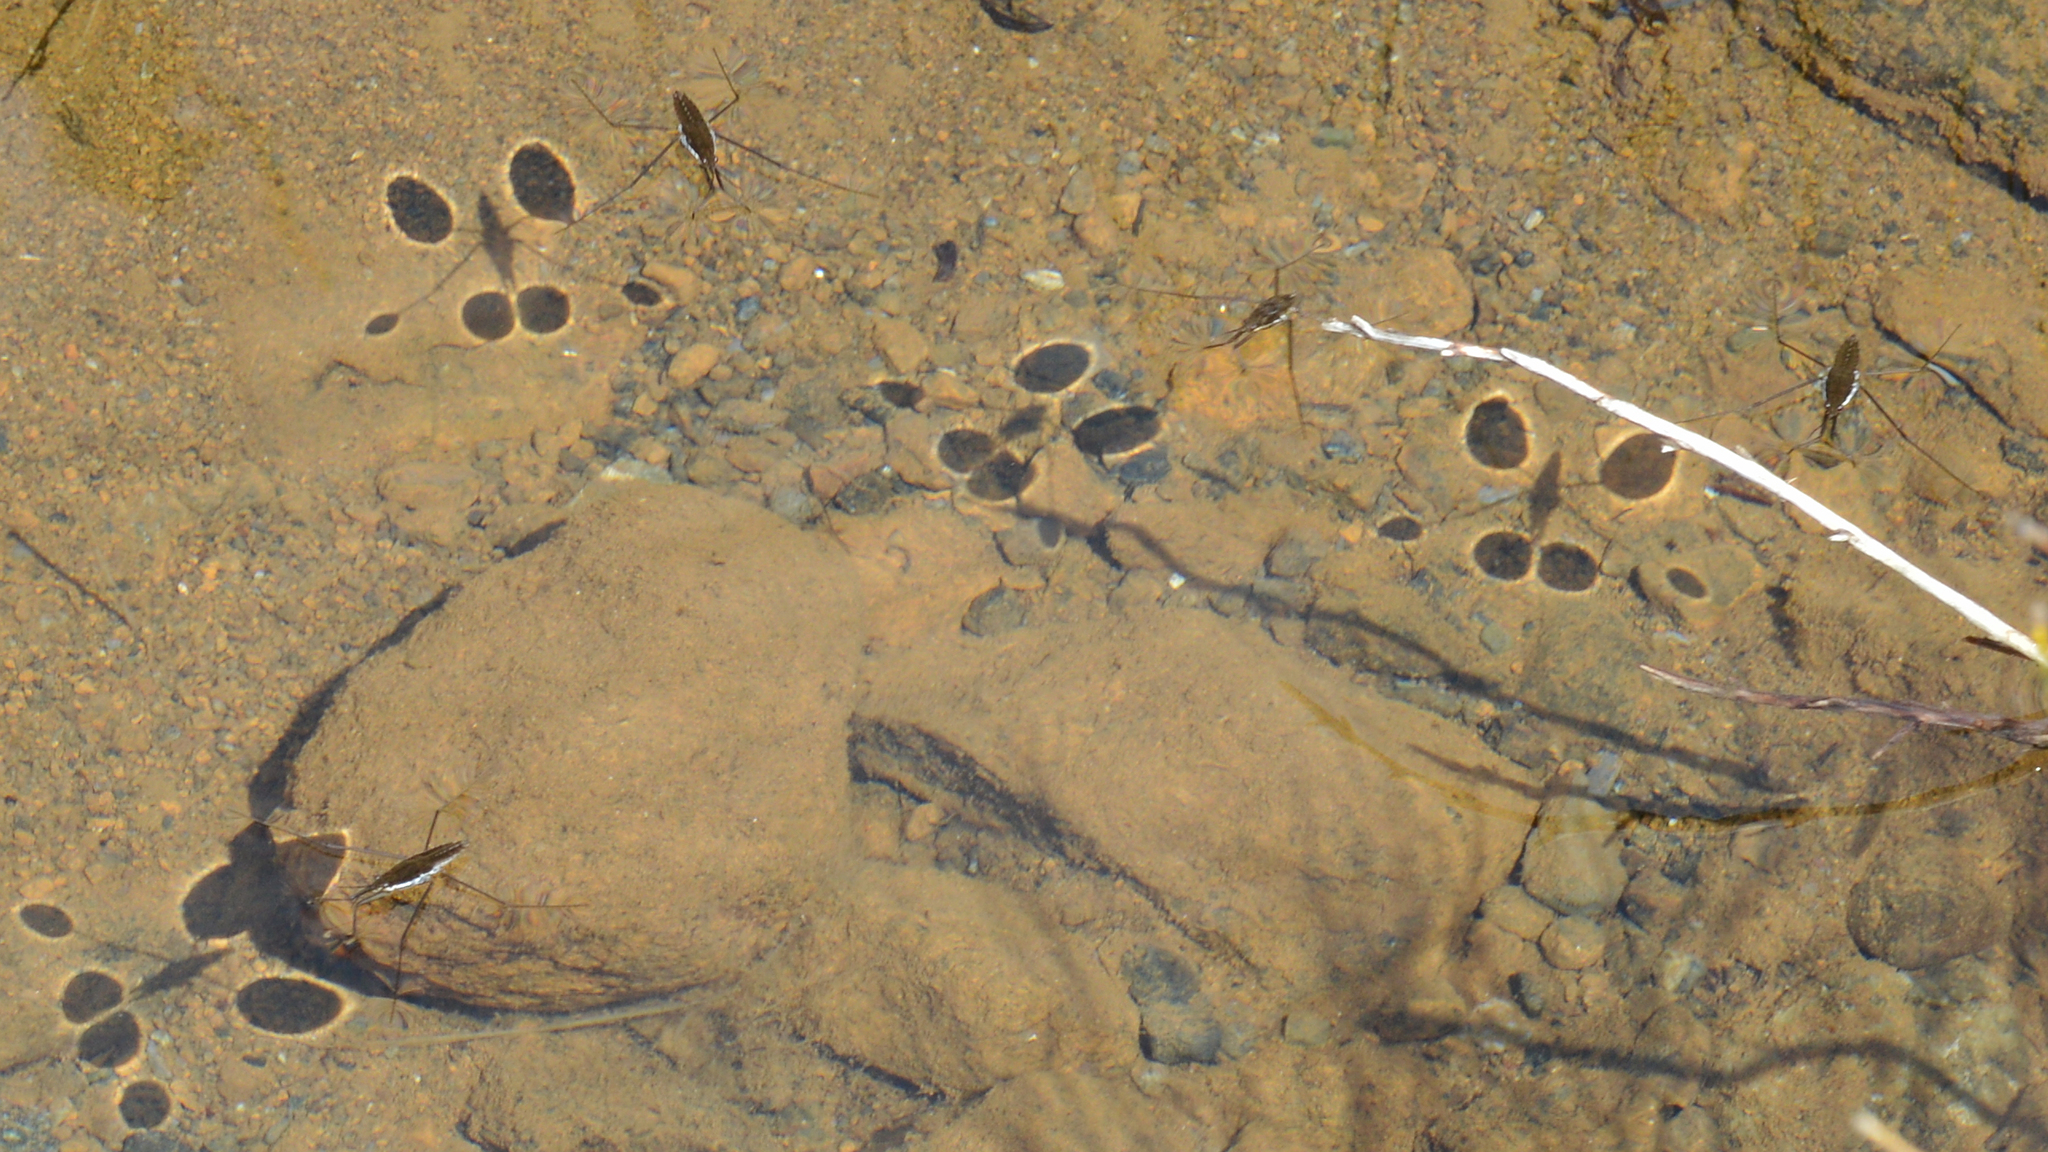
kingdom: Animalia
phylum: Arthropoda
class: Insecta
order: Hemiptera
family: Gerridae
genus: Aquarius
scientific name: Aquarius remigis
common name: Common water strider
